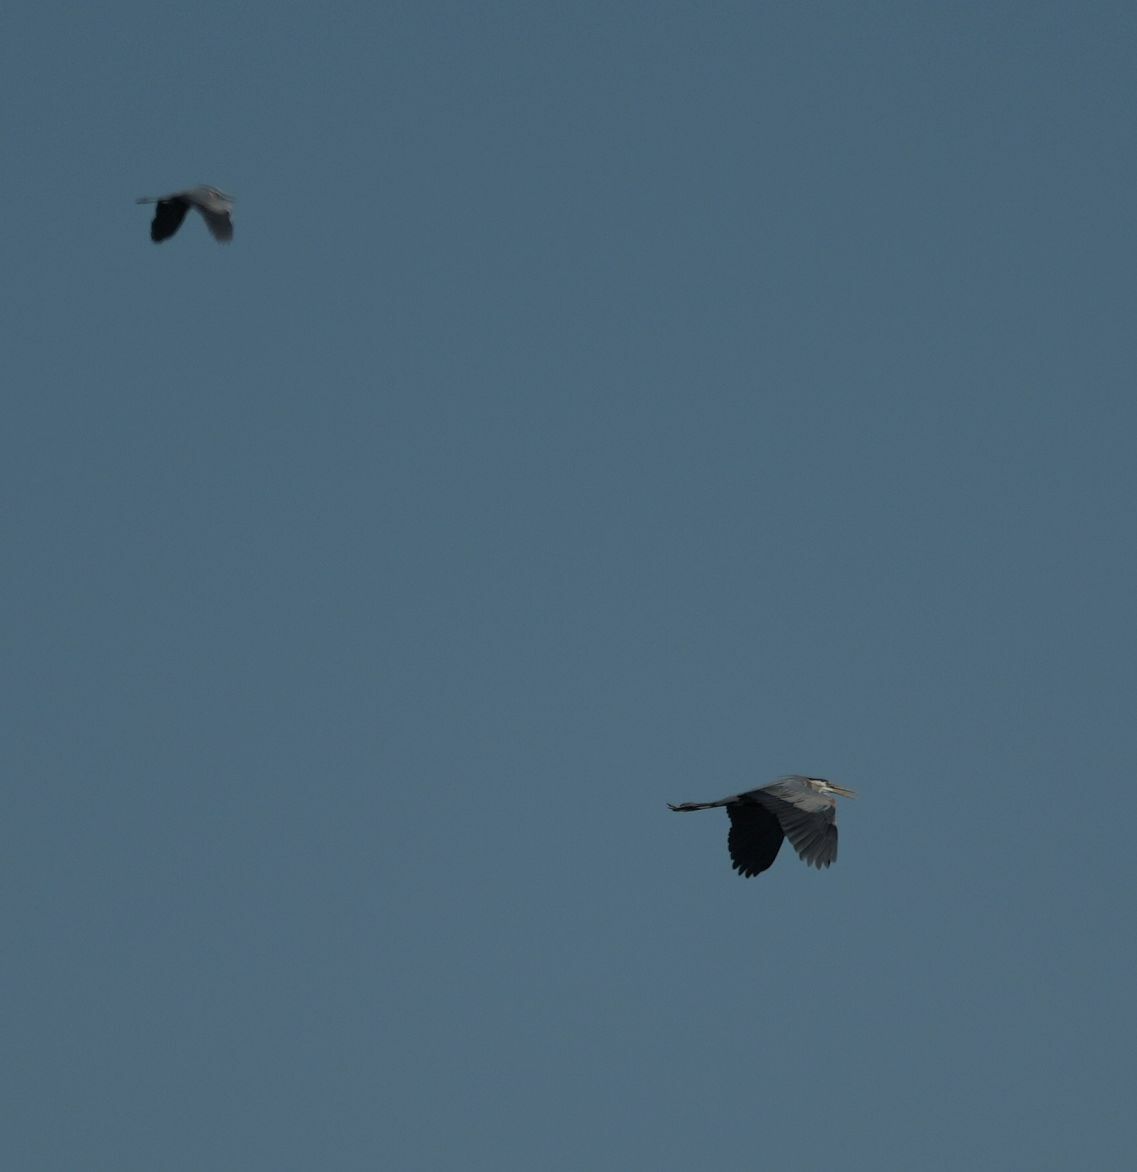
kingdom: Animalia
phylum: Chordata
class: Aves
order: Pelecaniformes
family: Ardeidae
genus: Ardea
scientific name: Ardea herodias
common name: Great blue heron
